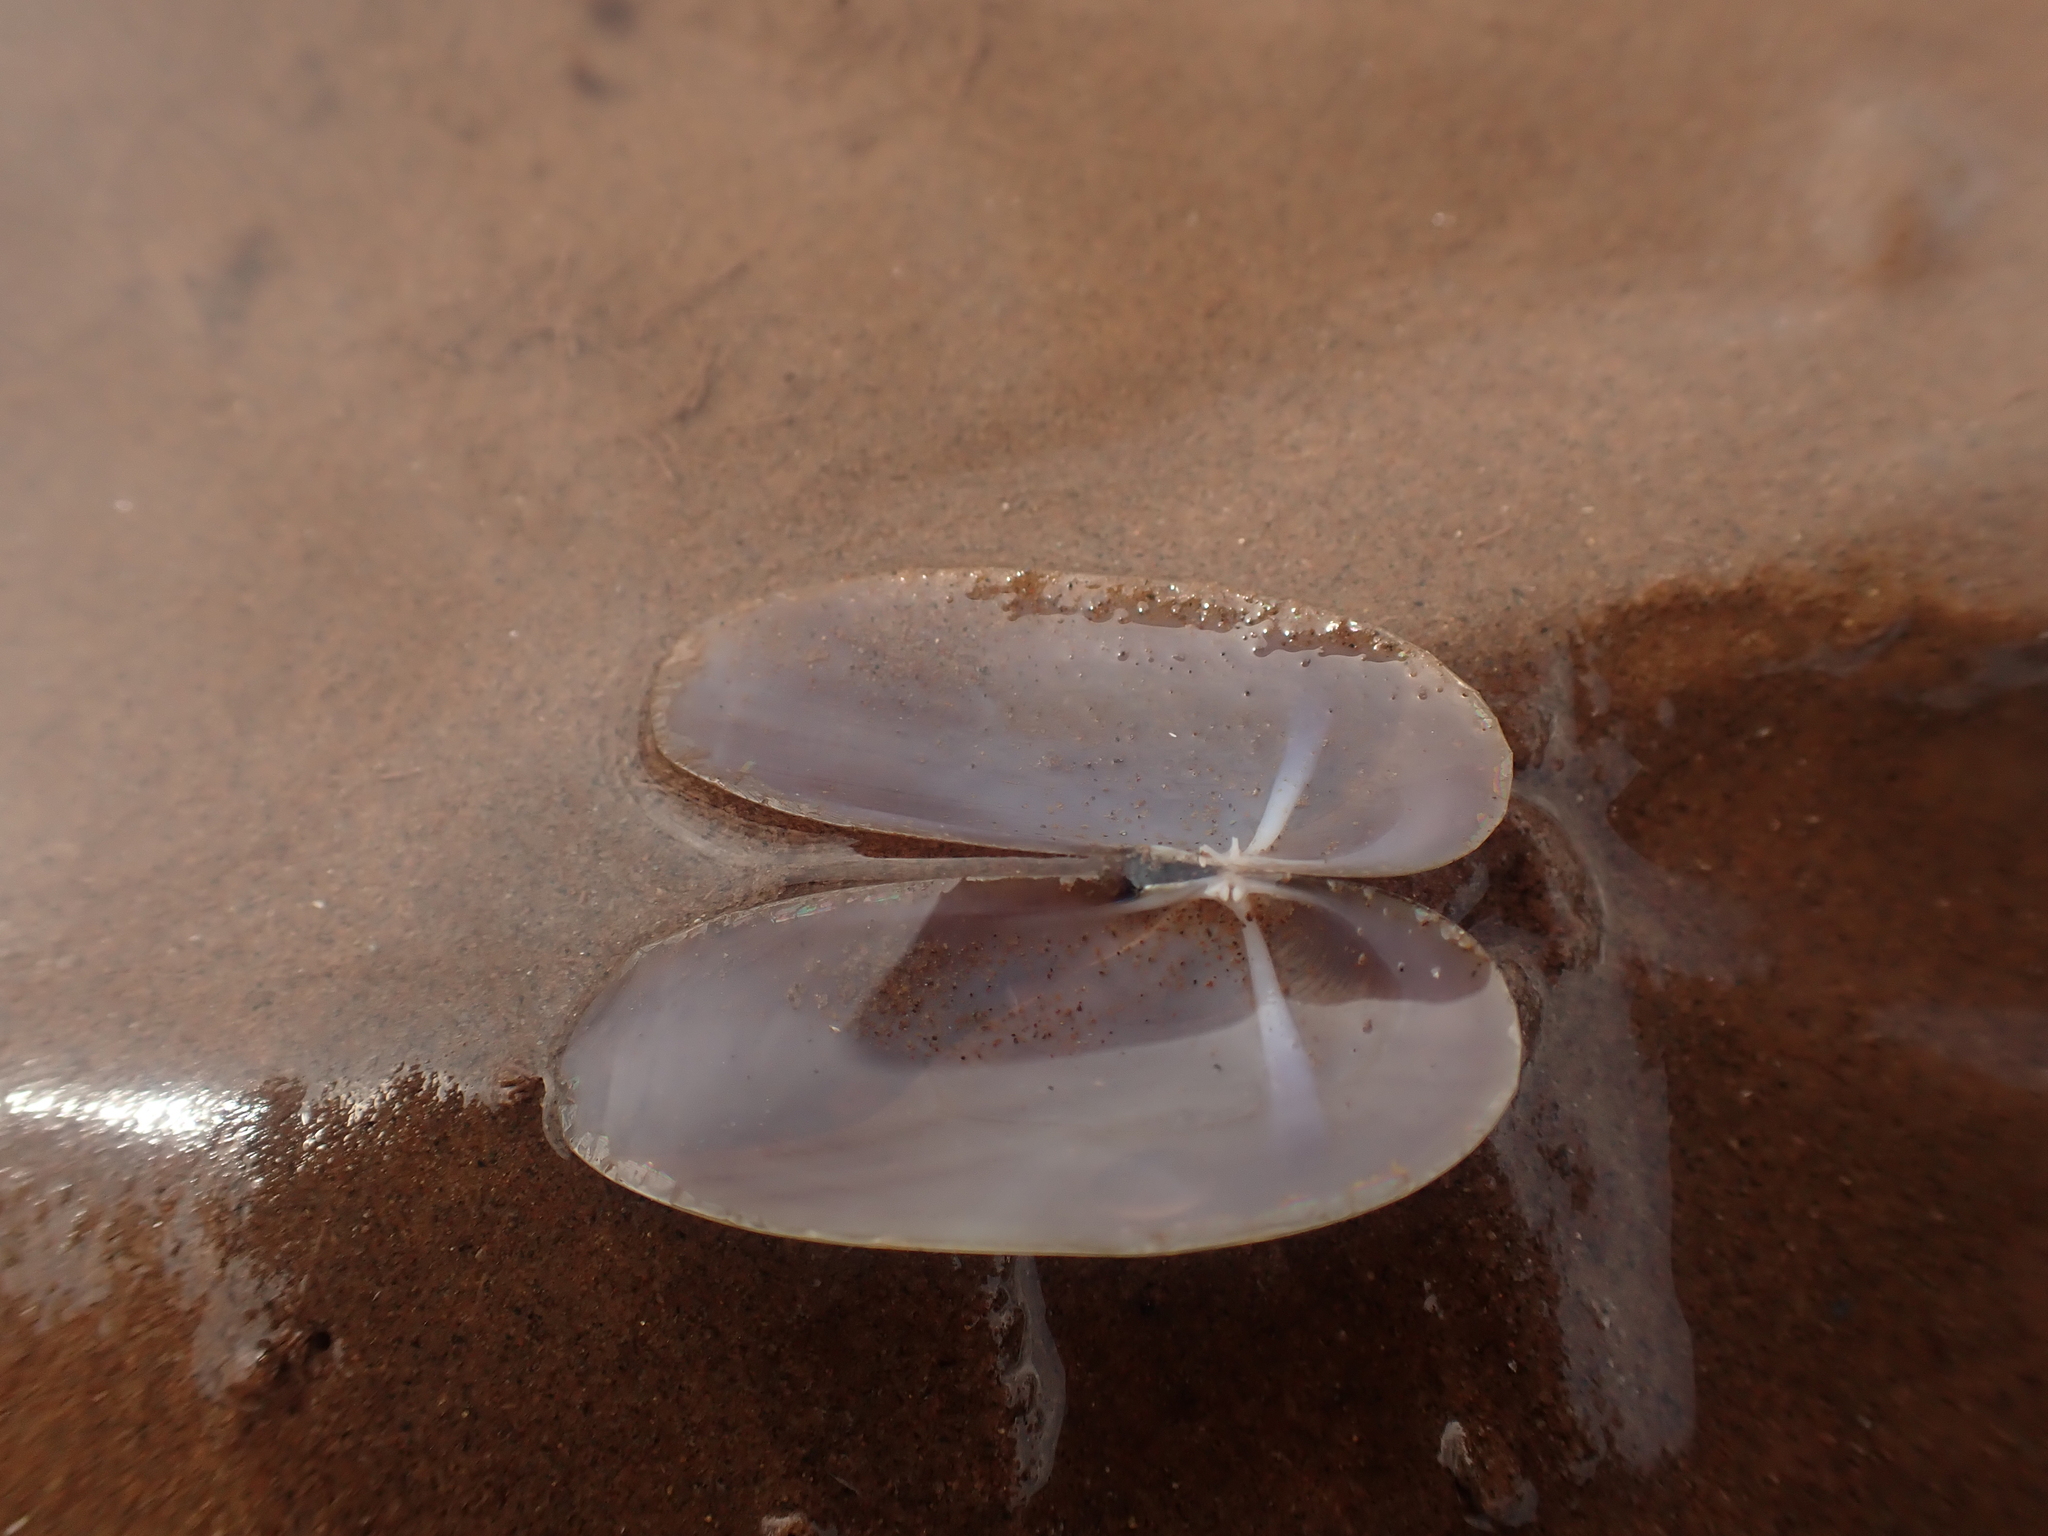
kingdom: Animalia
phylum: Mollusca
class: Bivalvia
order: Adapedonta
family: Pharidae
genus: Siliqua
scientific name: Siliqua costata
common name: Atlantic razor
